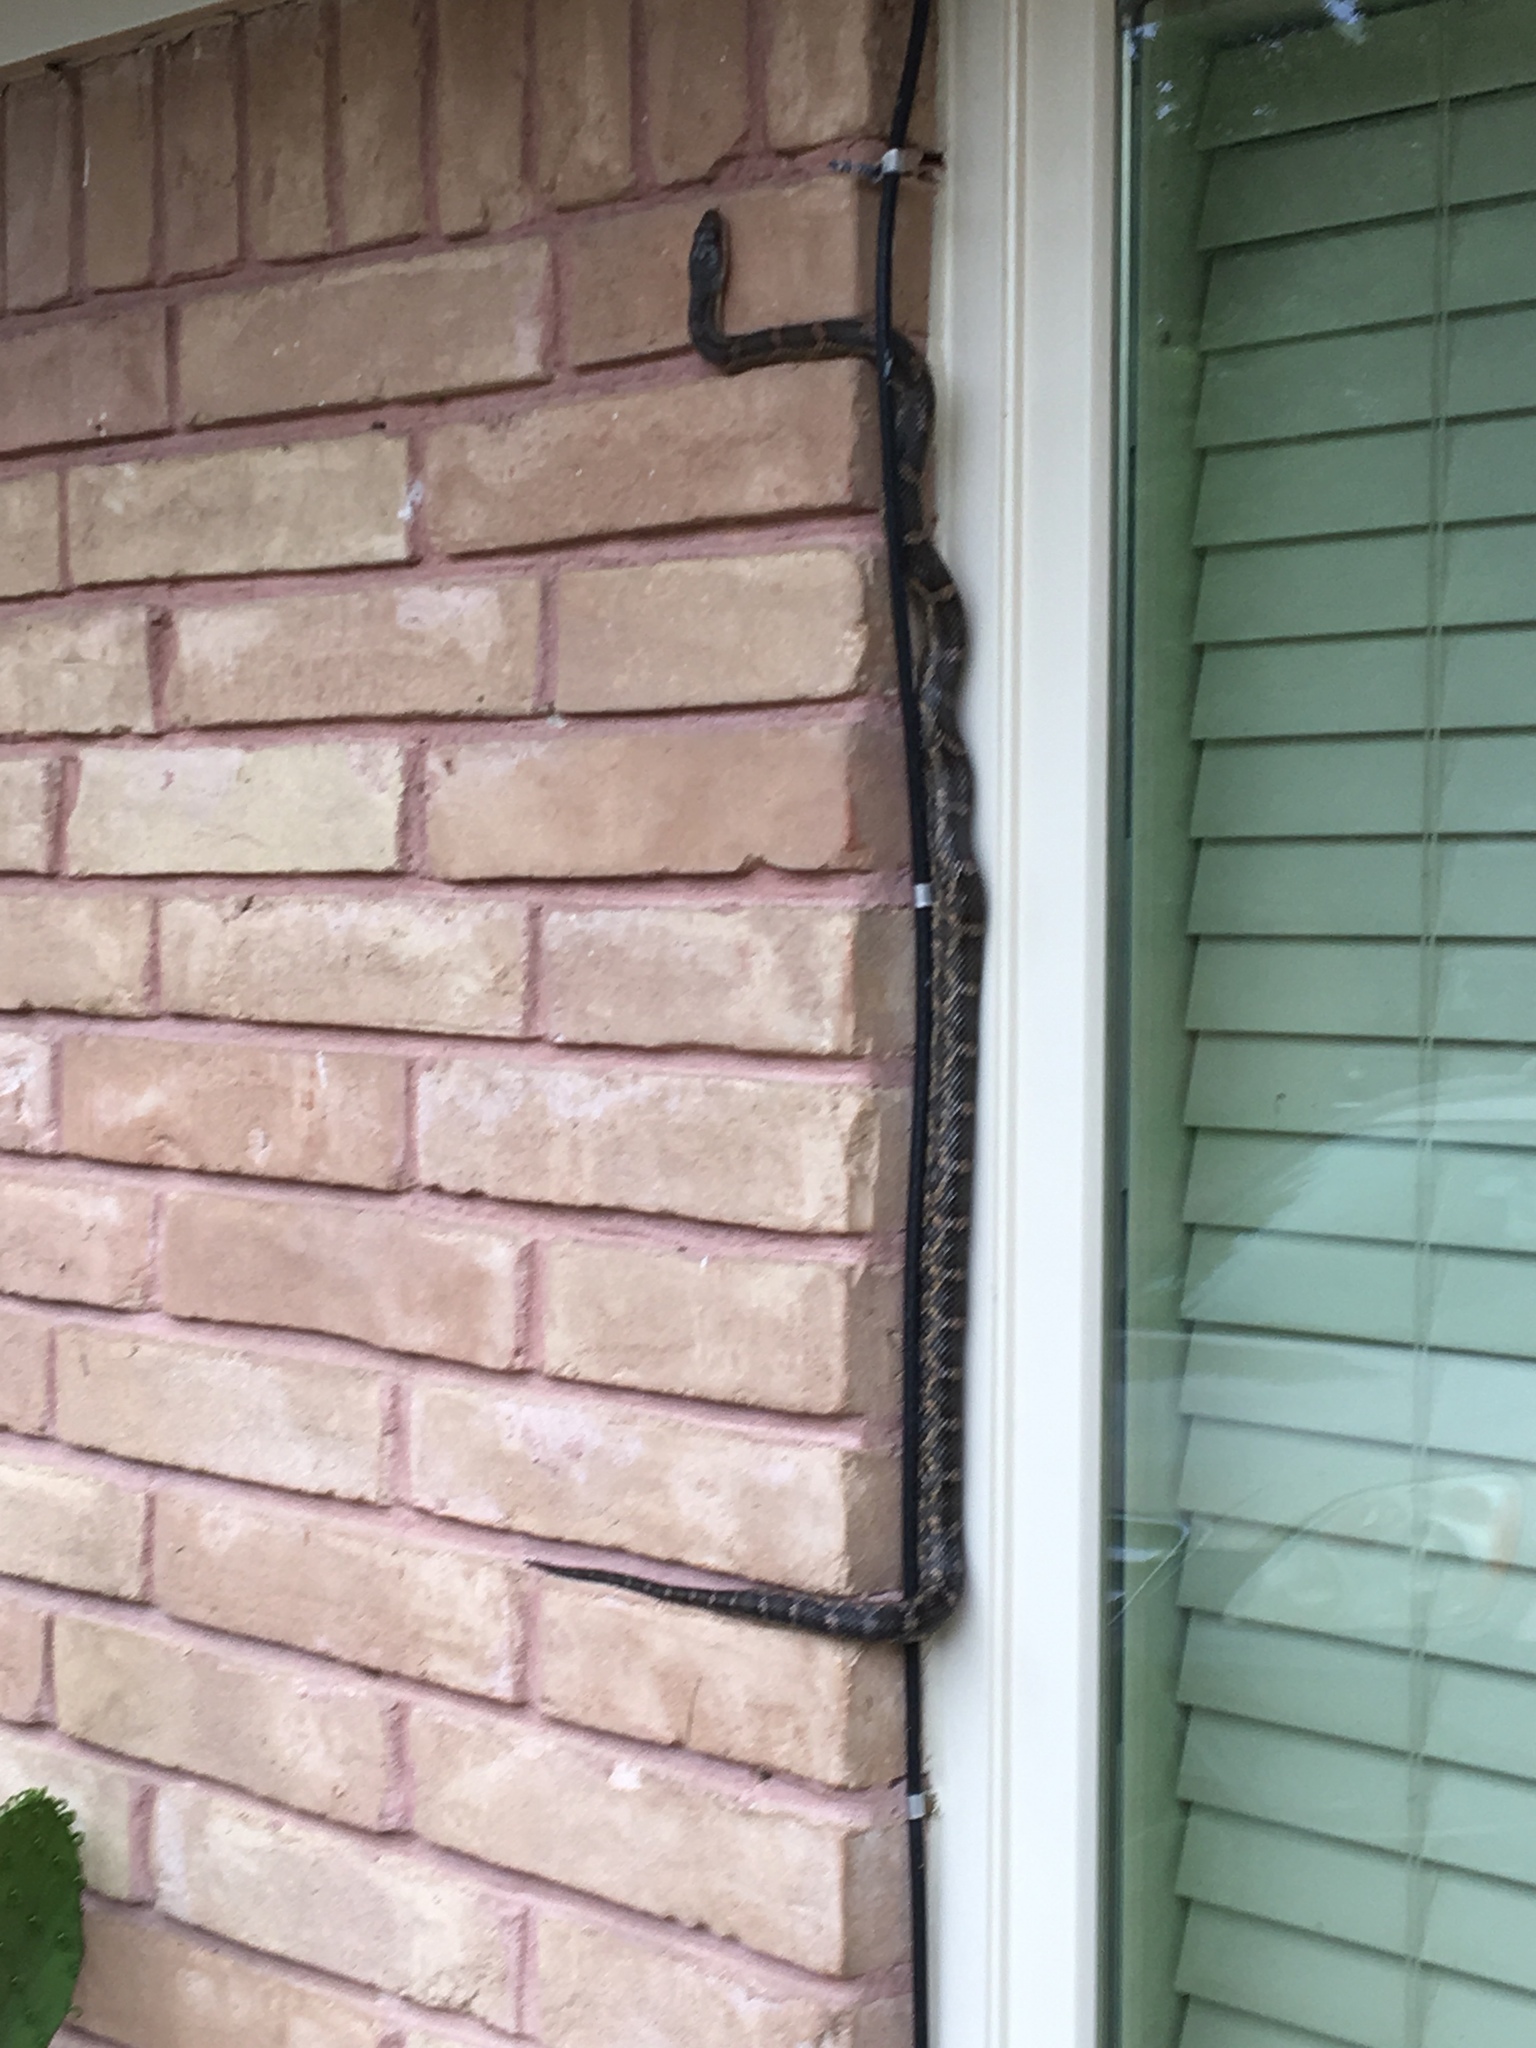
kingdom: Animalia
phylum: Chordata
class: Squamata
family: Colubridae
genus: Pantherophis
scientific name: Pantherophis obsoletus
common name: Black rat snake
